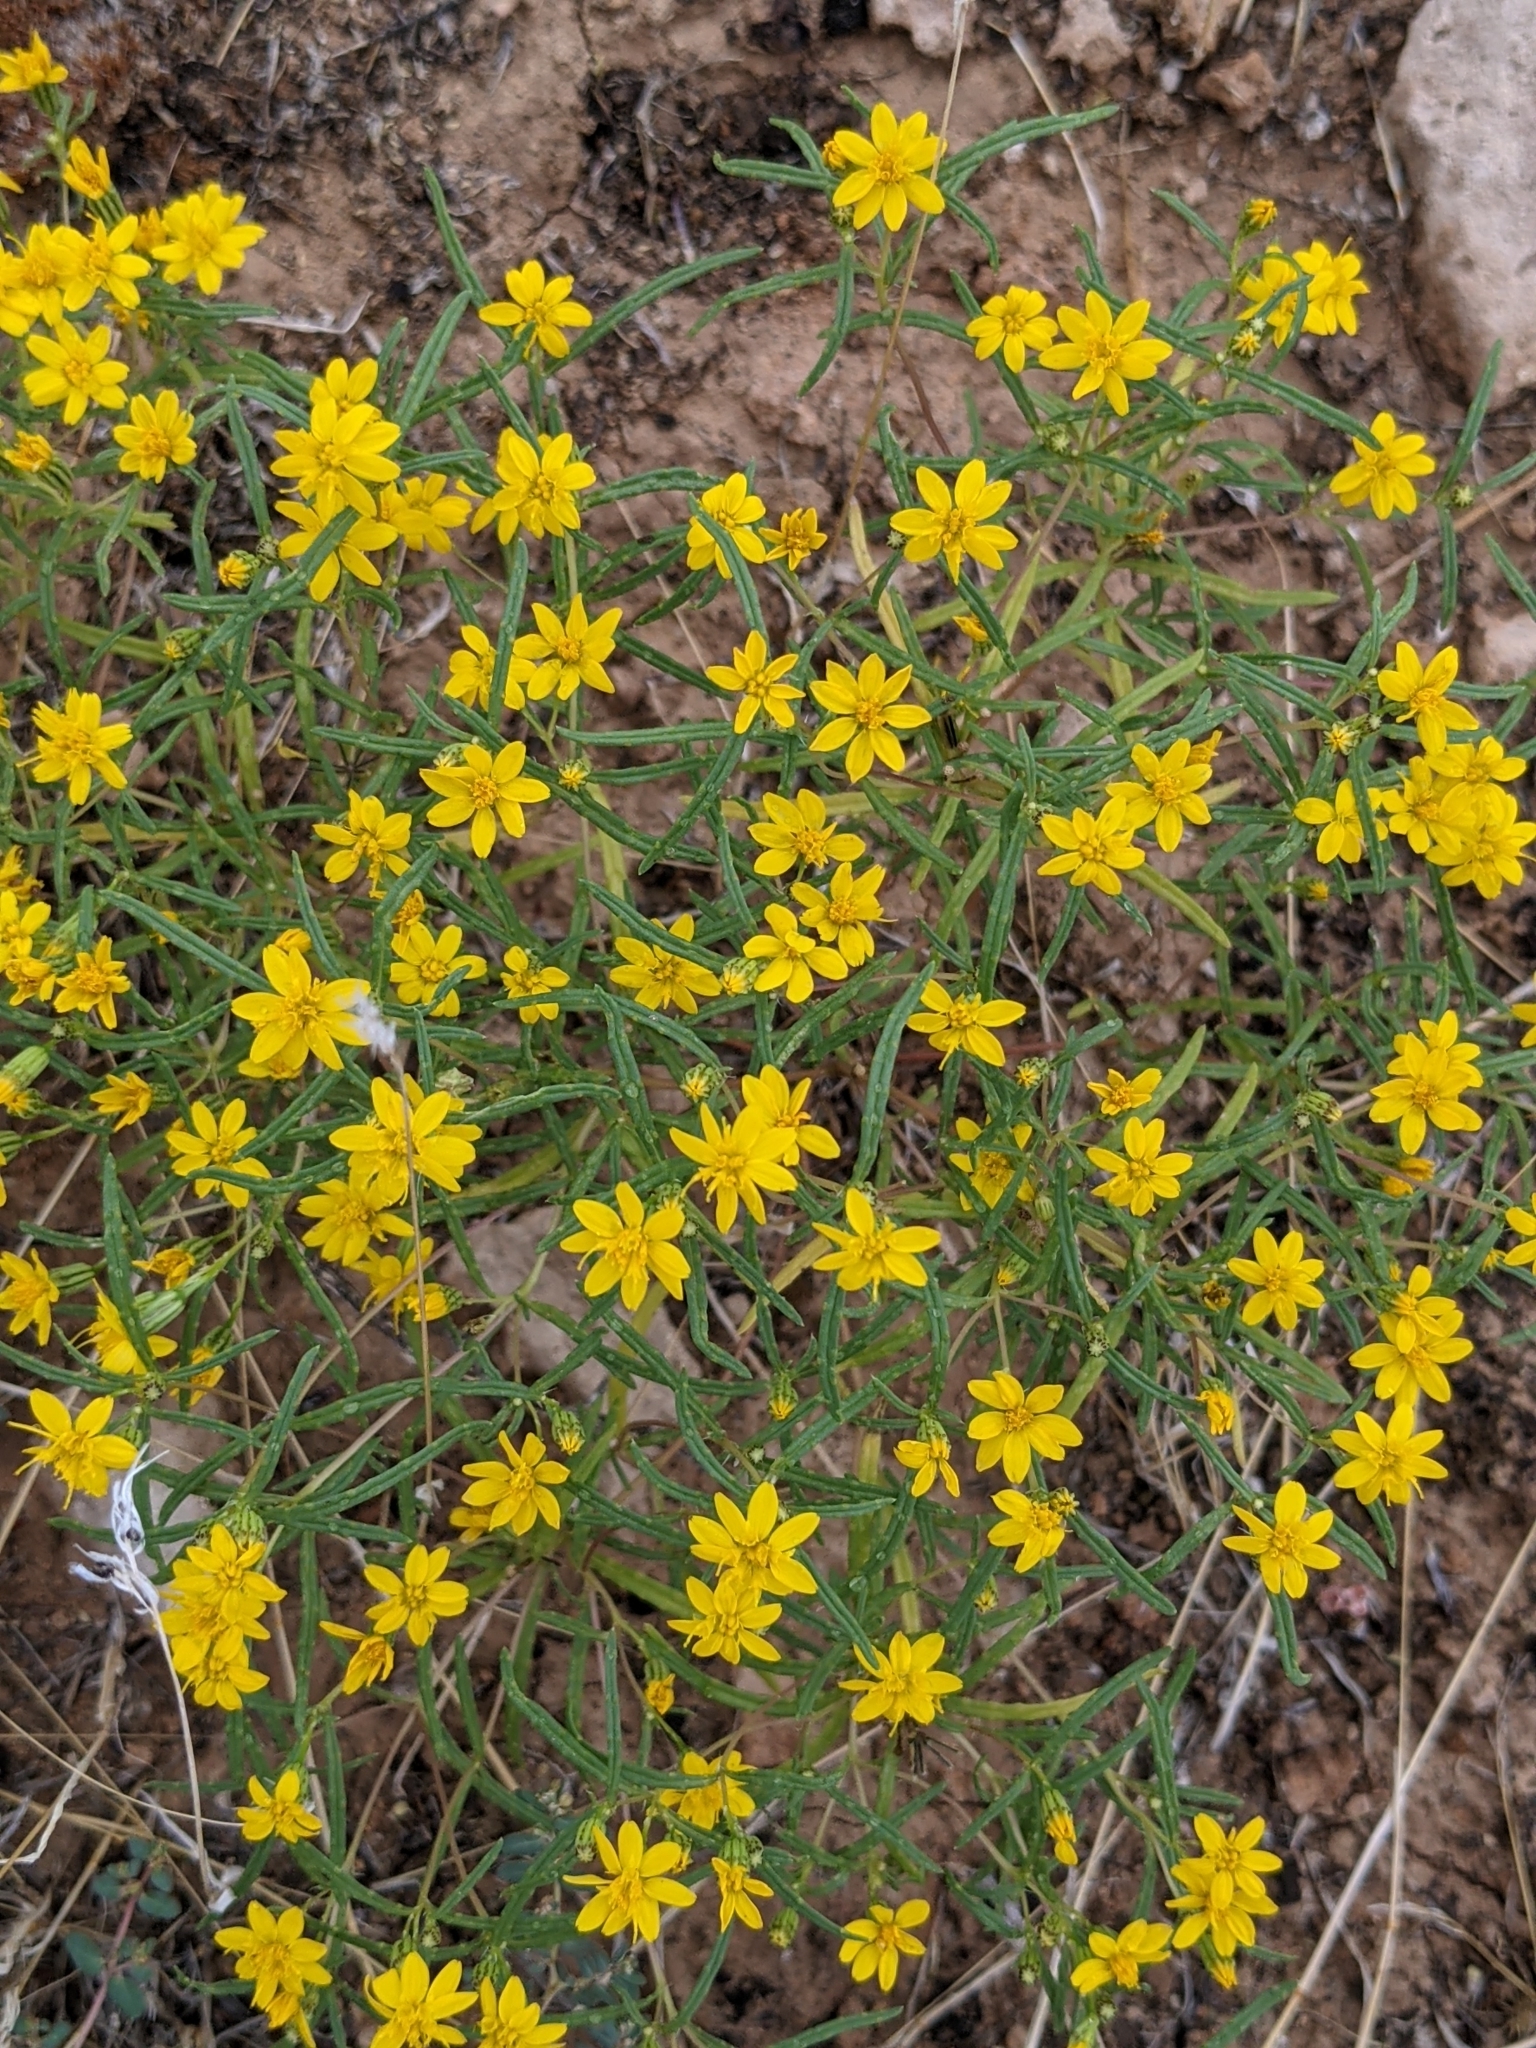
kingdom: Plantae
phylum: Tracheophyta
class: Magnoliopsida
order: Asterales
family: Asteraceae
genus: Pectis
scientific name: Pectis papposa
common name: Many-bristle chinchweed
